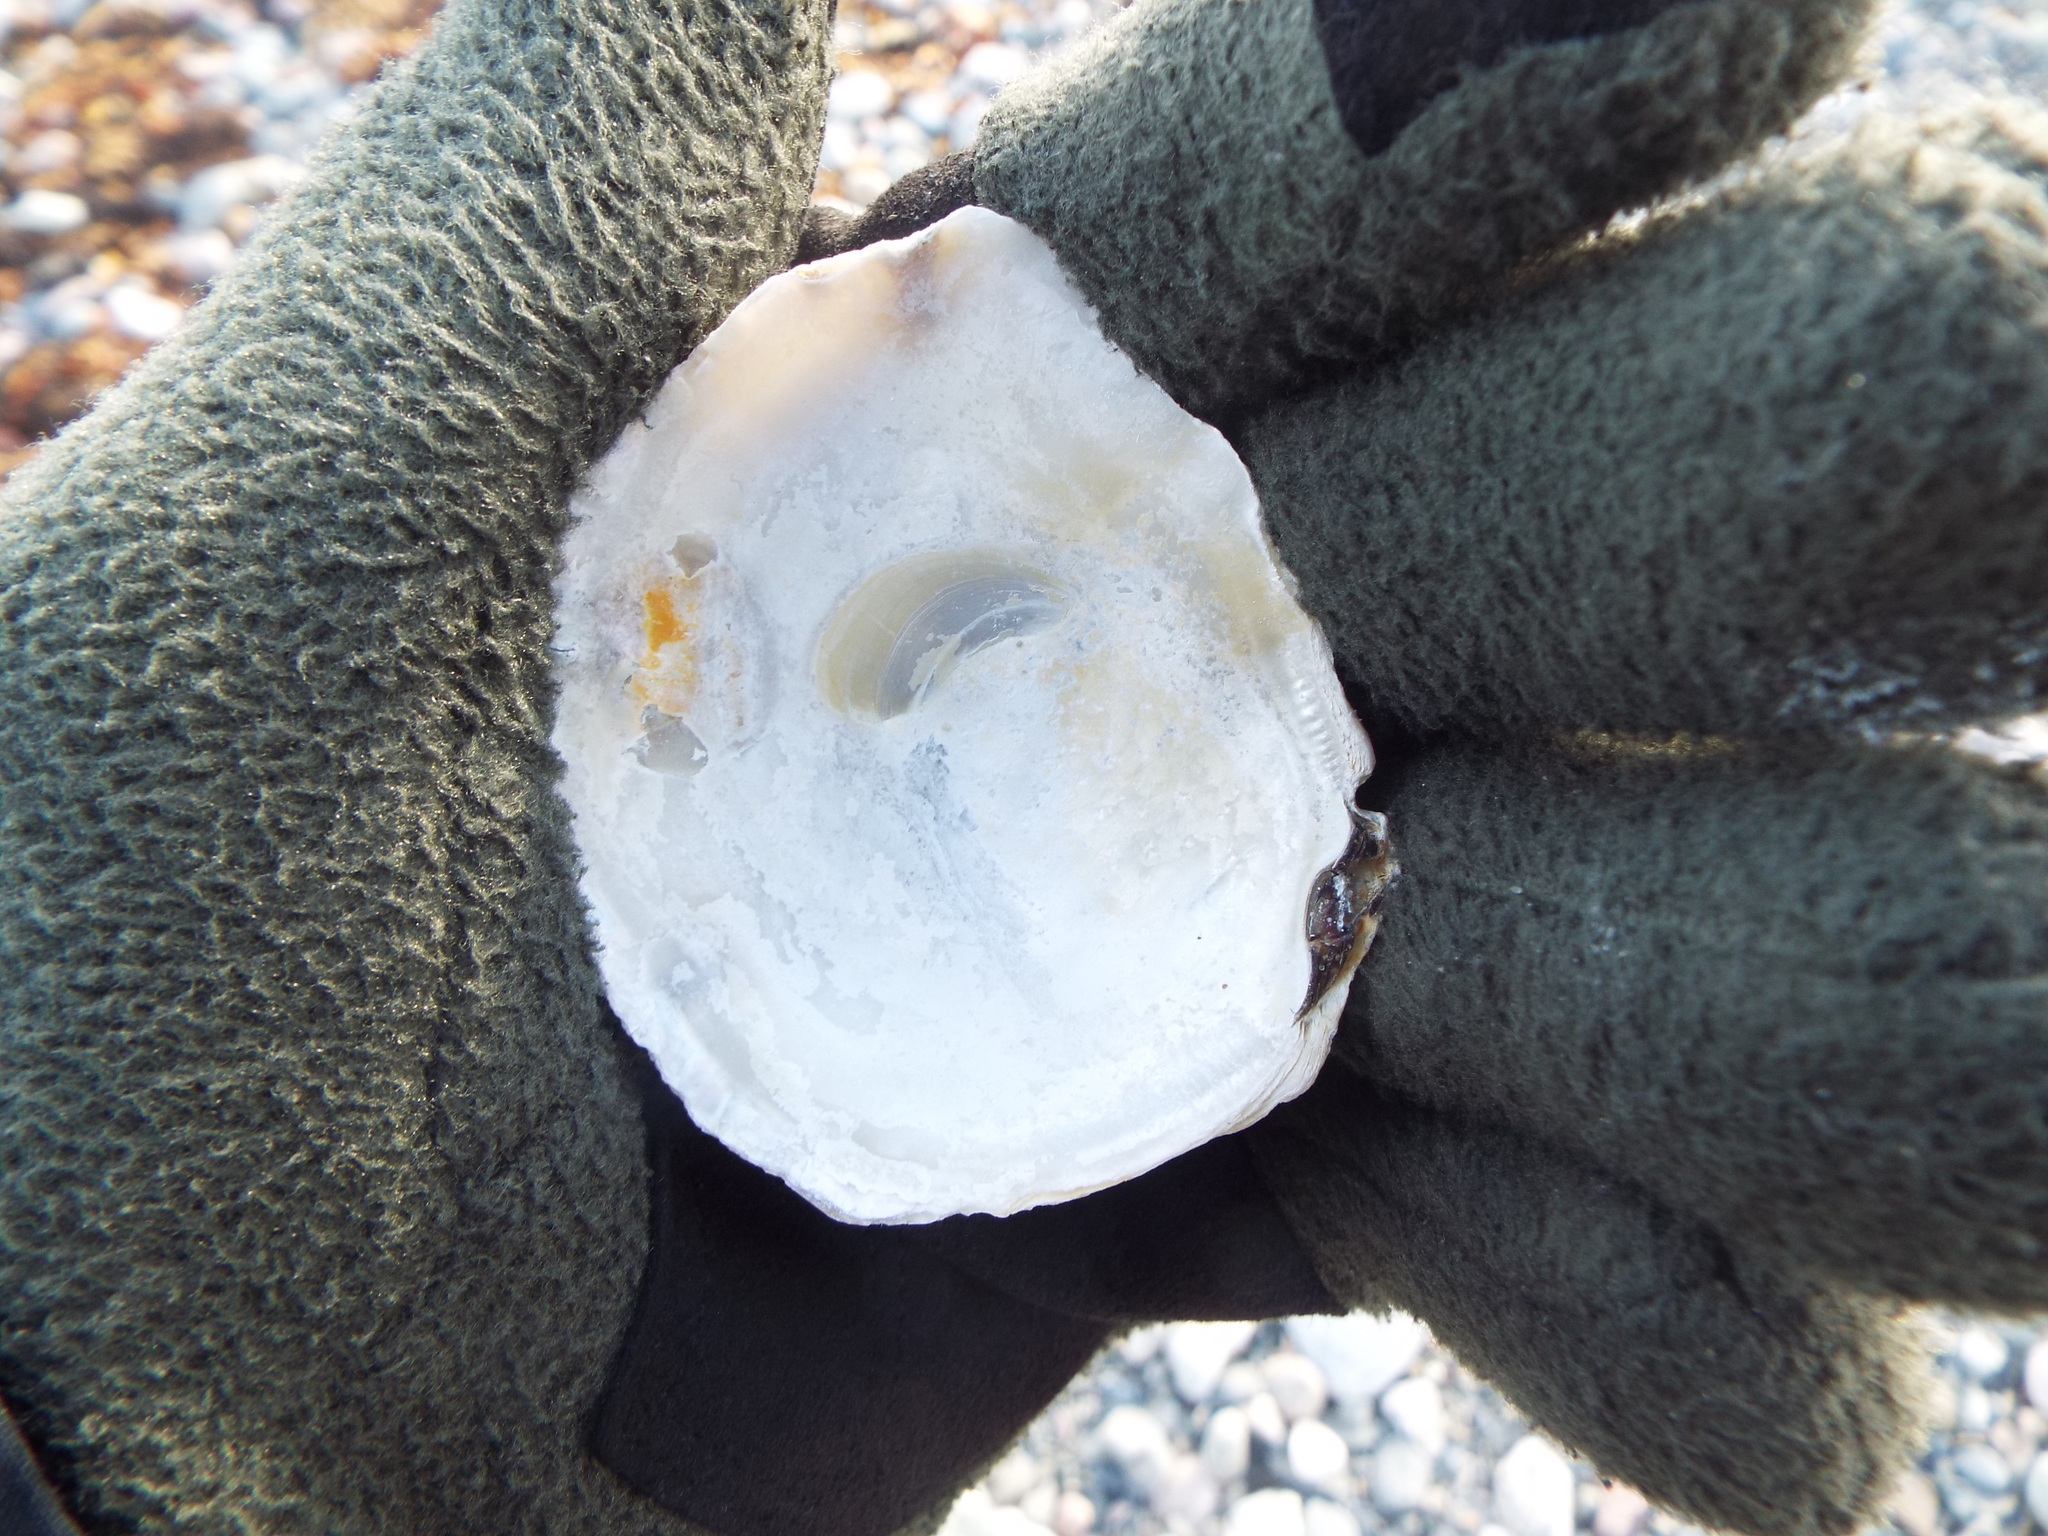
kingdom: Animalia
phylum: Mollusca
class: Bivalvia
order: Ostreida
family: Ostreidae
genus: Ostrea
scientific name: Ostrea edulis
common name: Flat oyster
